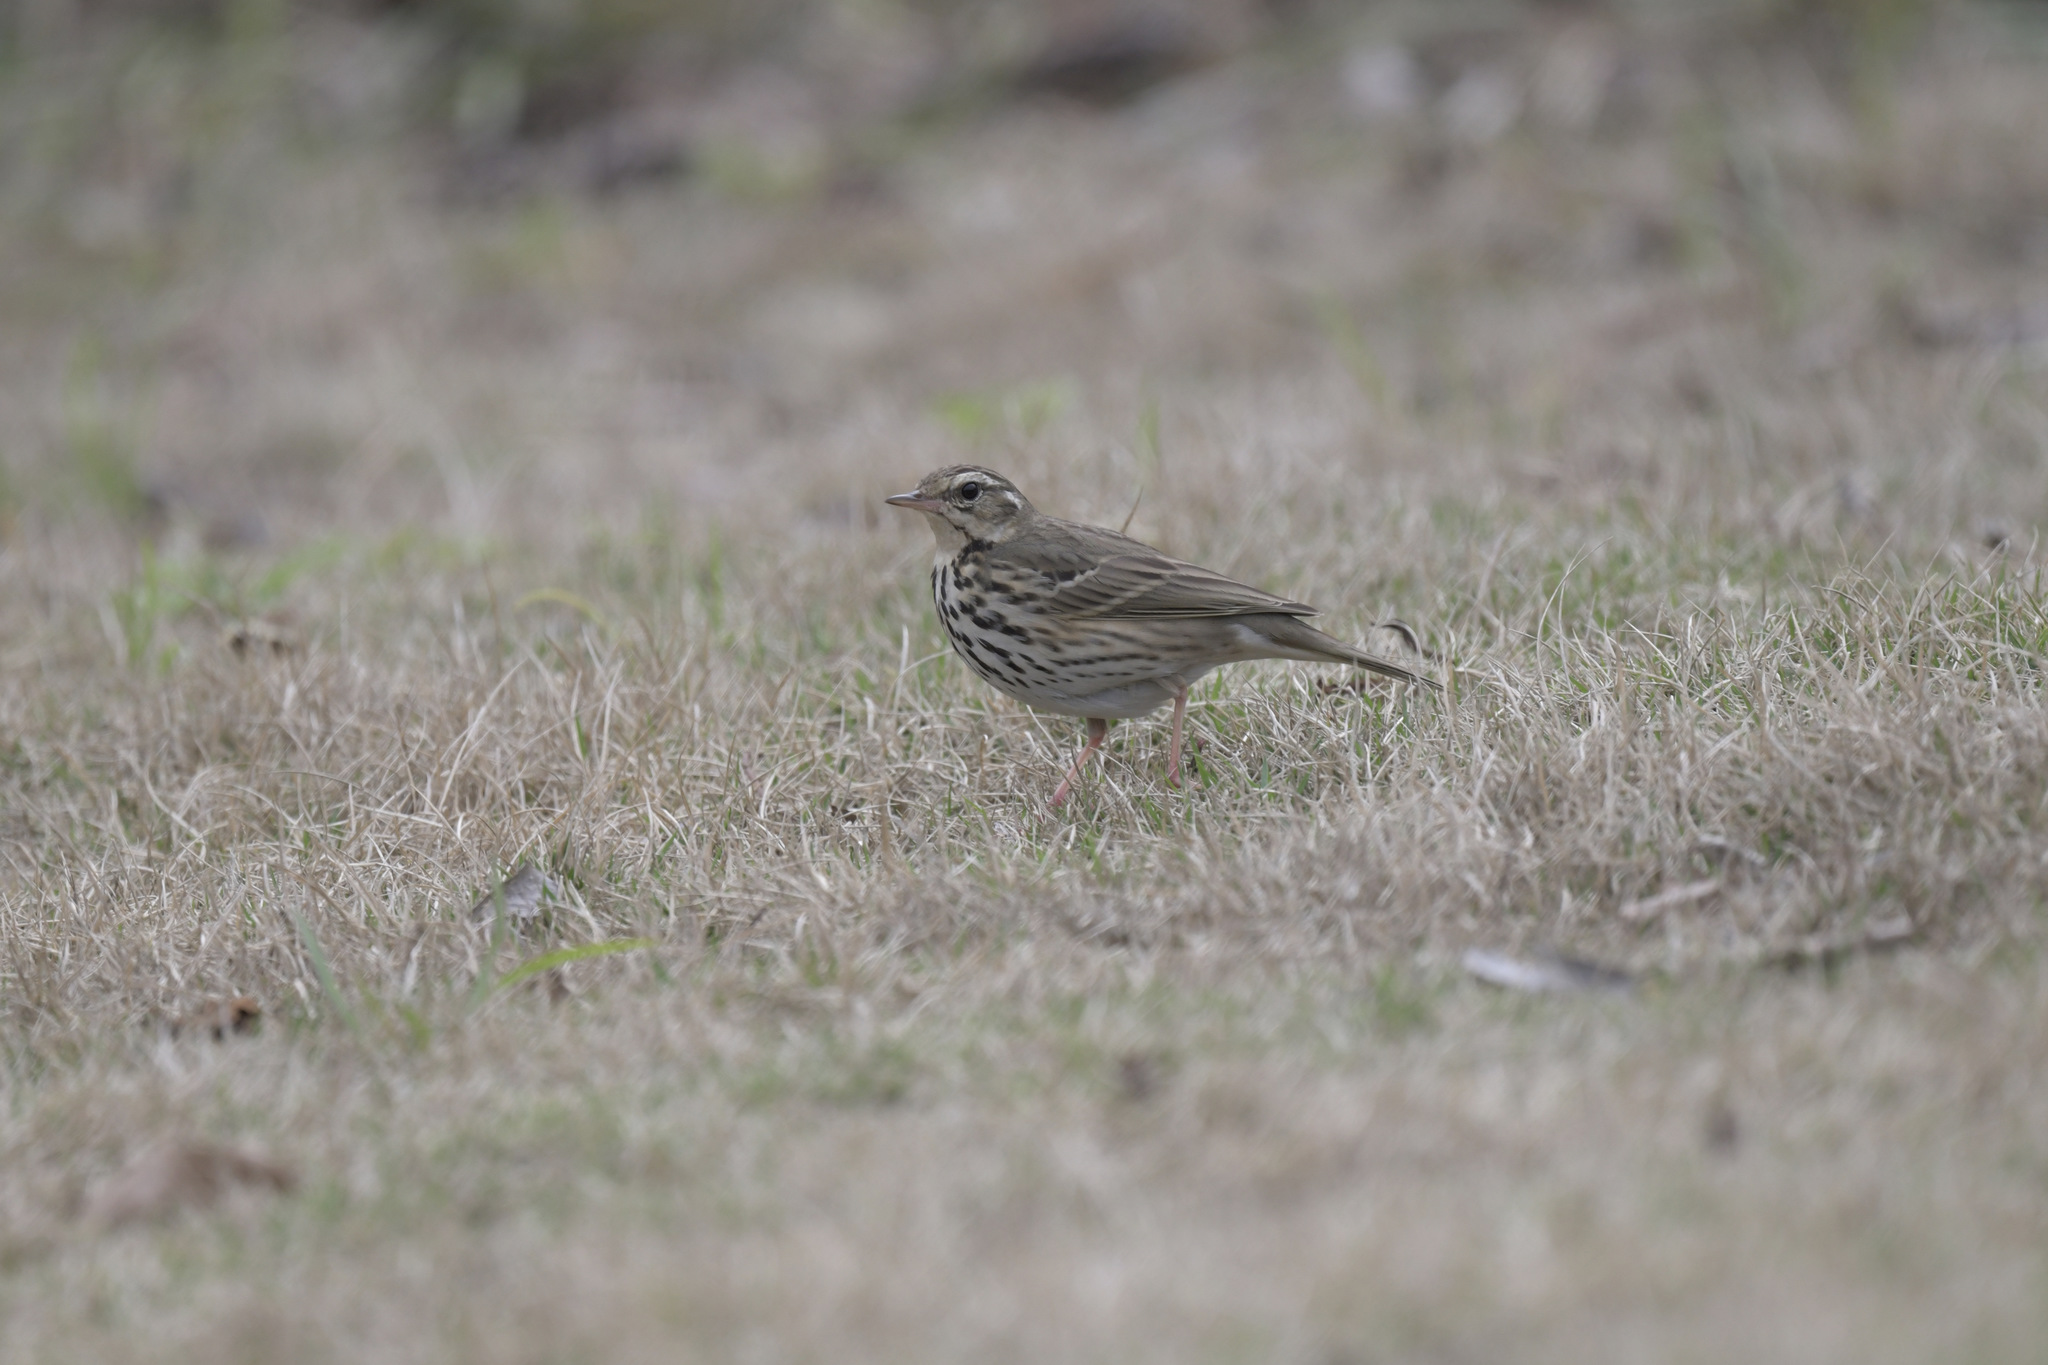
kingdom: Animalia
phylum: Chordata
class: Aves
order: Passeriformes
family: Motacillidae
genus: Anthus
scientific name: Anthus hodgsoni
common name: Olive-backed pipit
